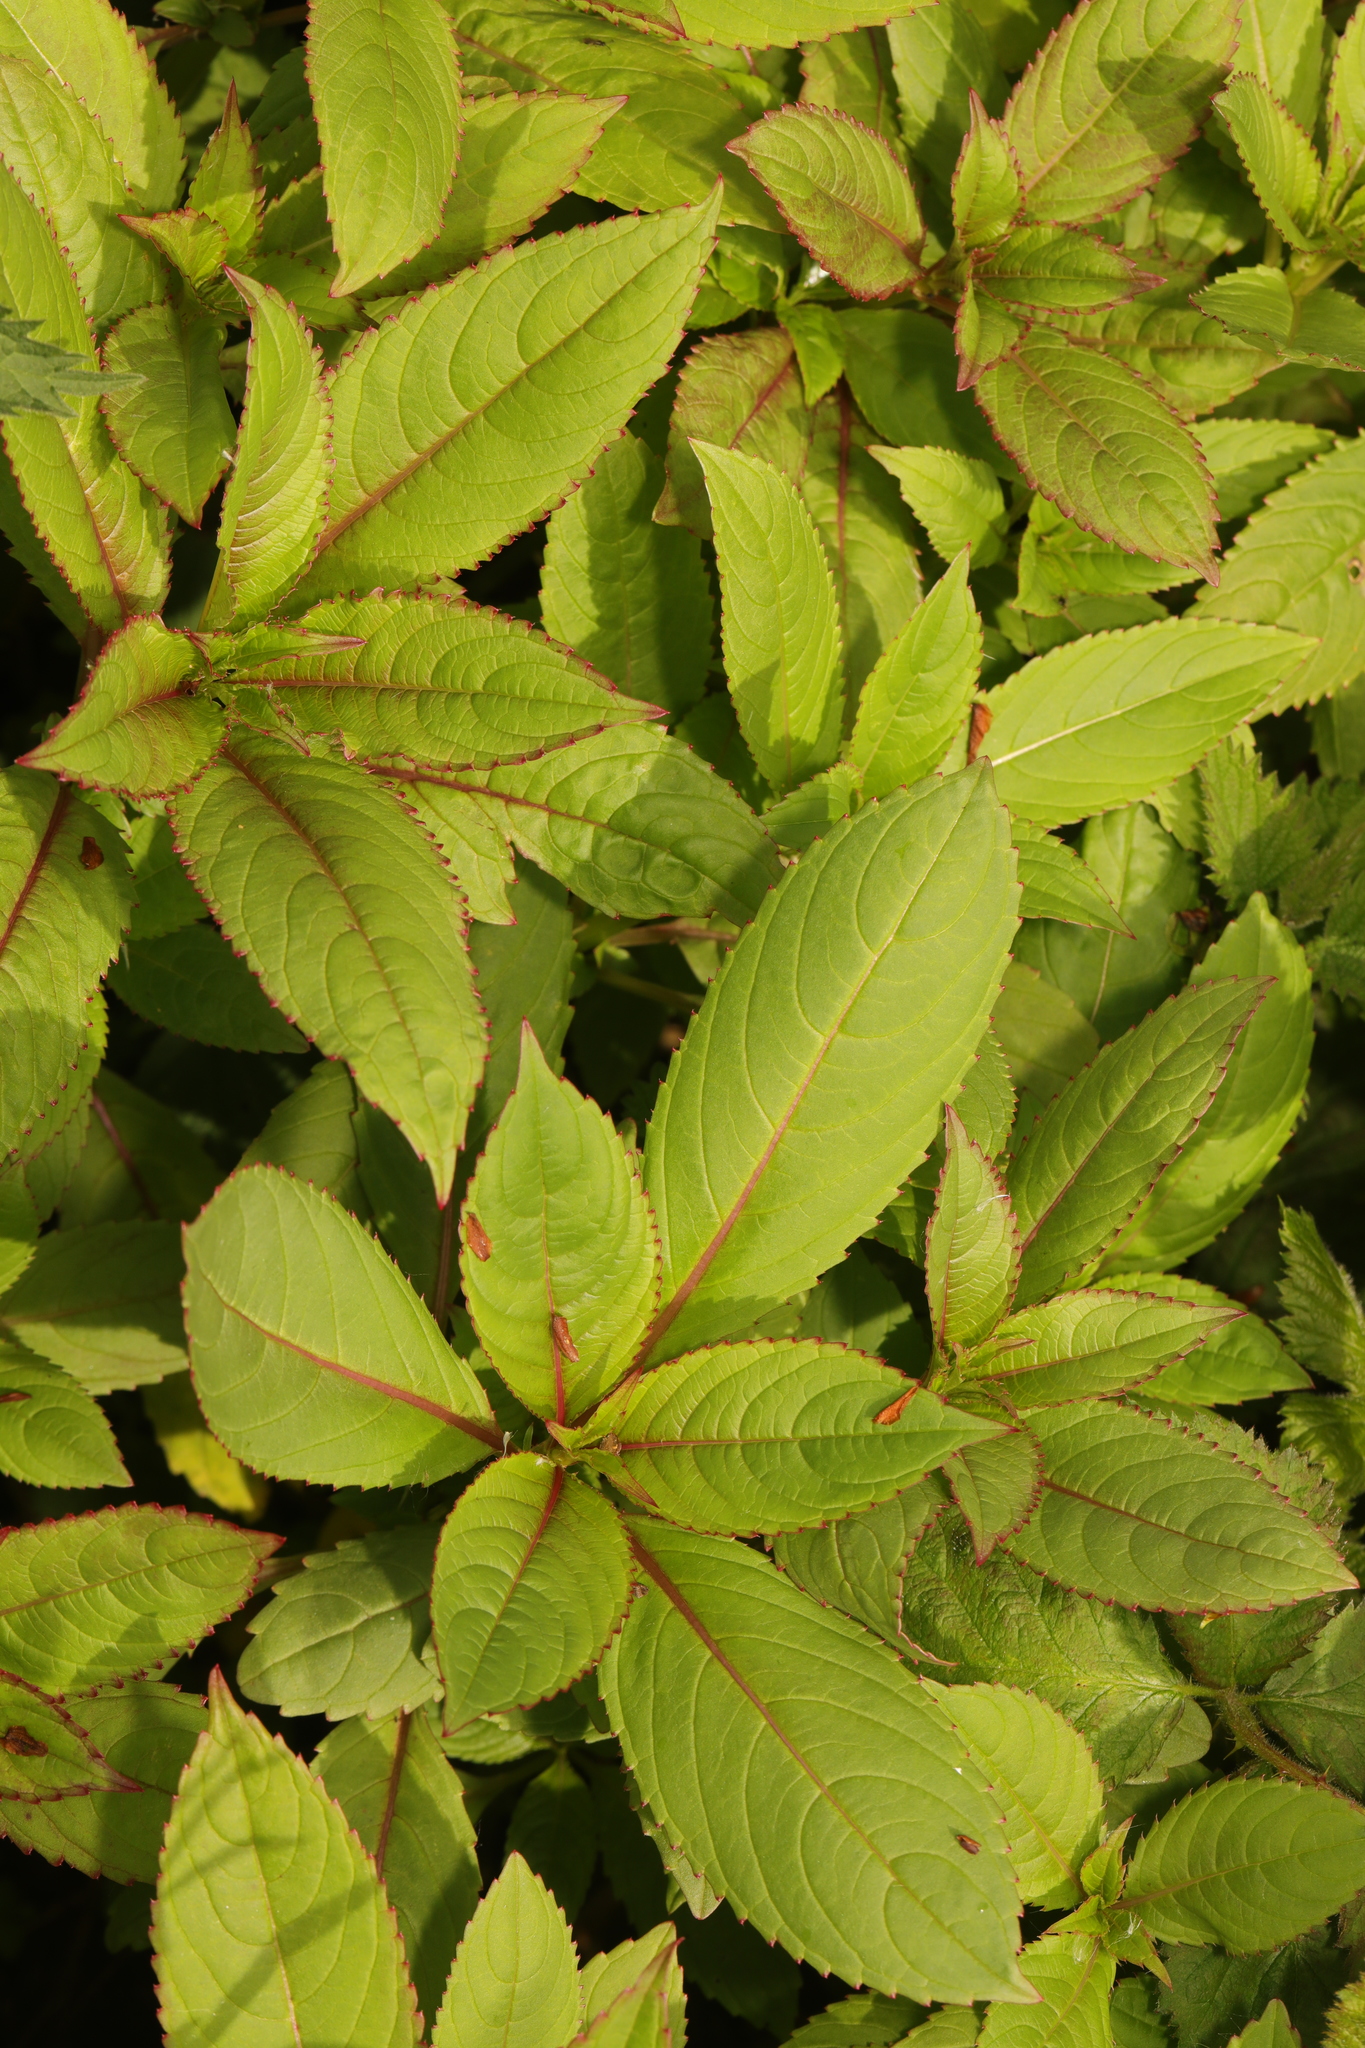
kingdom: Plantae
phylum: Tracheophyta
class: Magnoliopsida
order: Ericales
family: Balsaminaceae
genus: Impatiens
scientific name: Impatiens glandulifera
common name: Himalayan balsam
